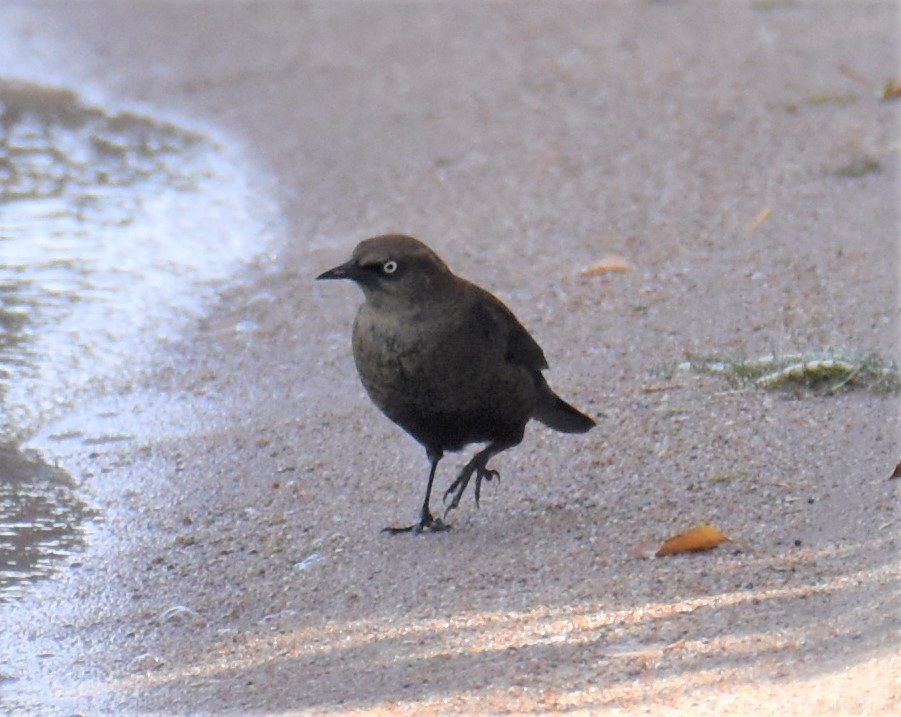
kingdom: Animalia
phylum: Chordata
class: Aves
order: Passeriformes
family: Icteridae
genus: Euphagus
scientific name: Euphagus carolinus
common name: Rusty blackbird
